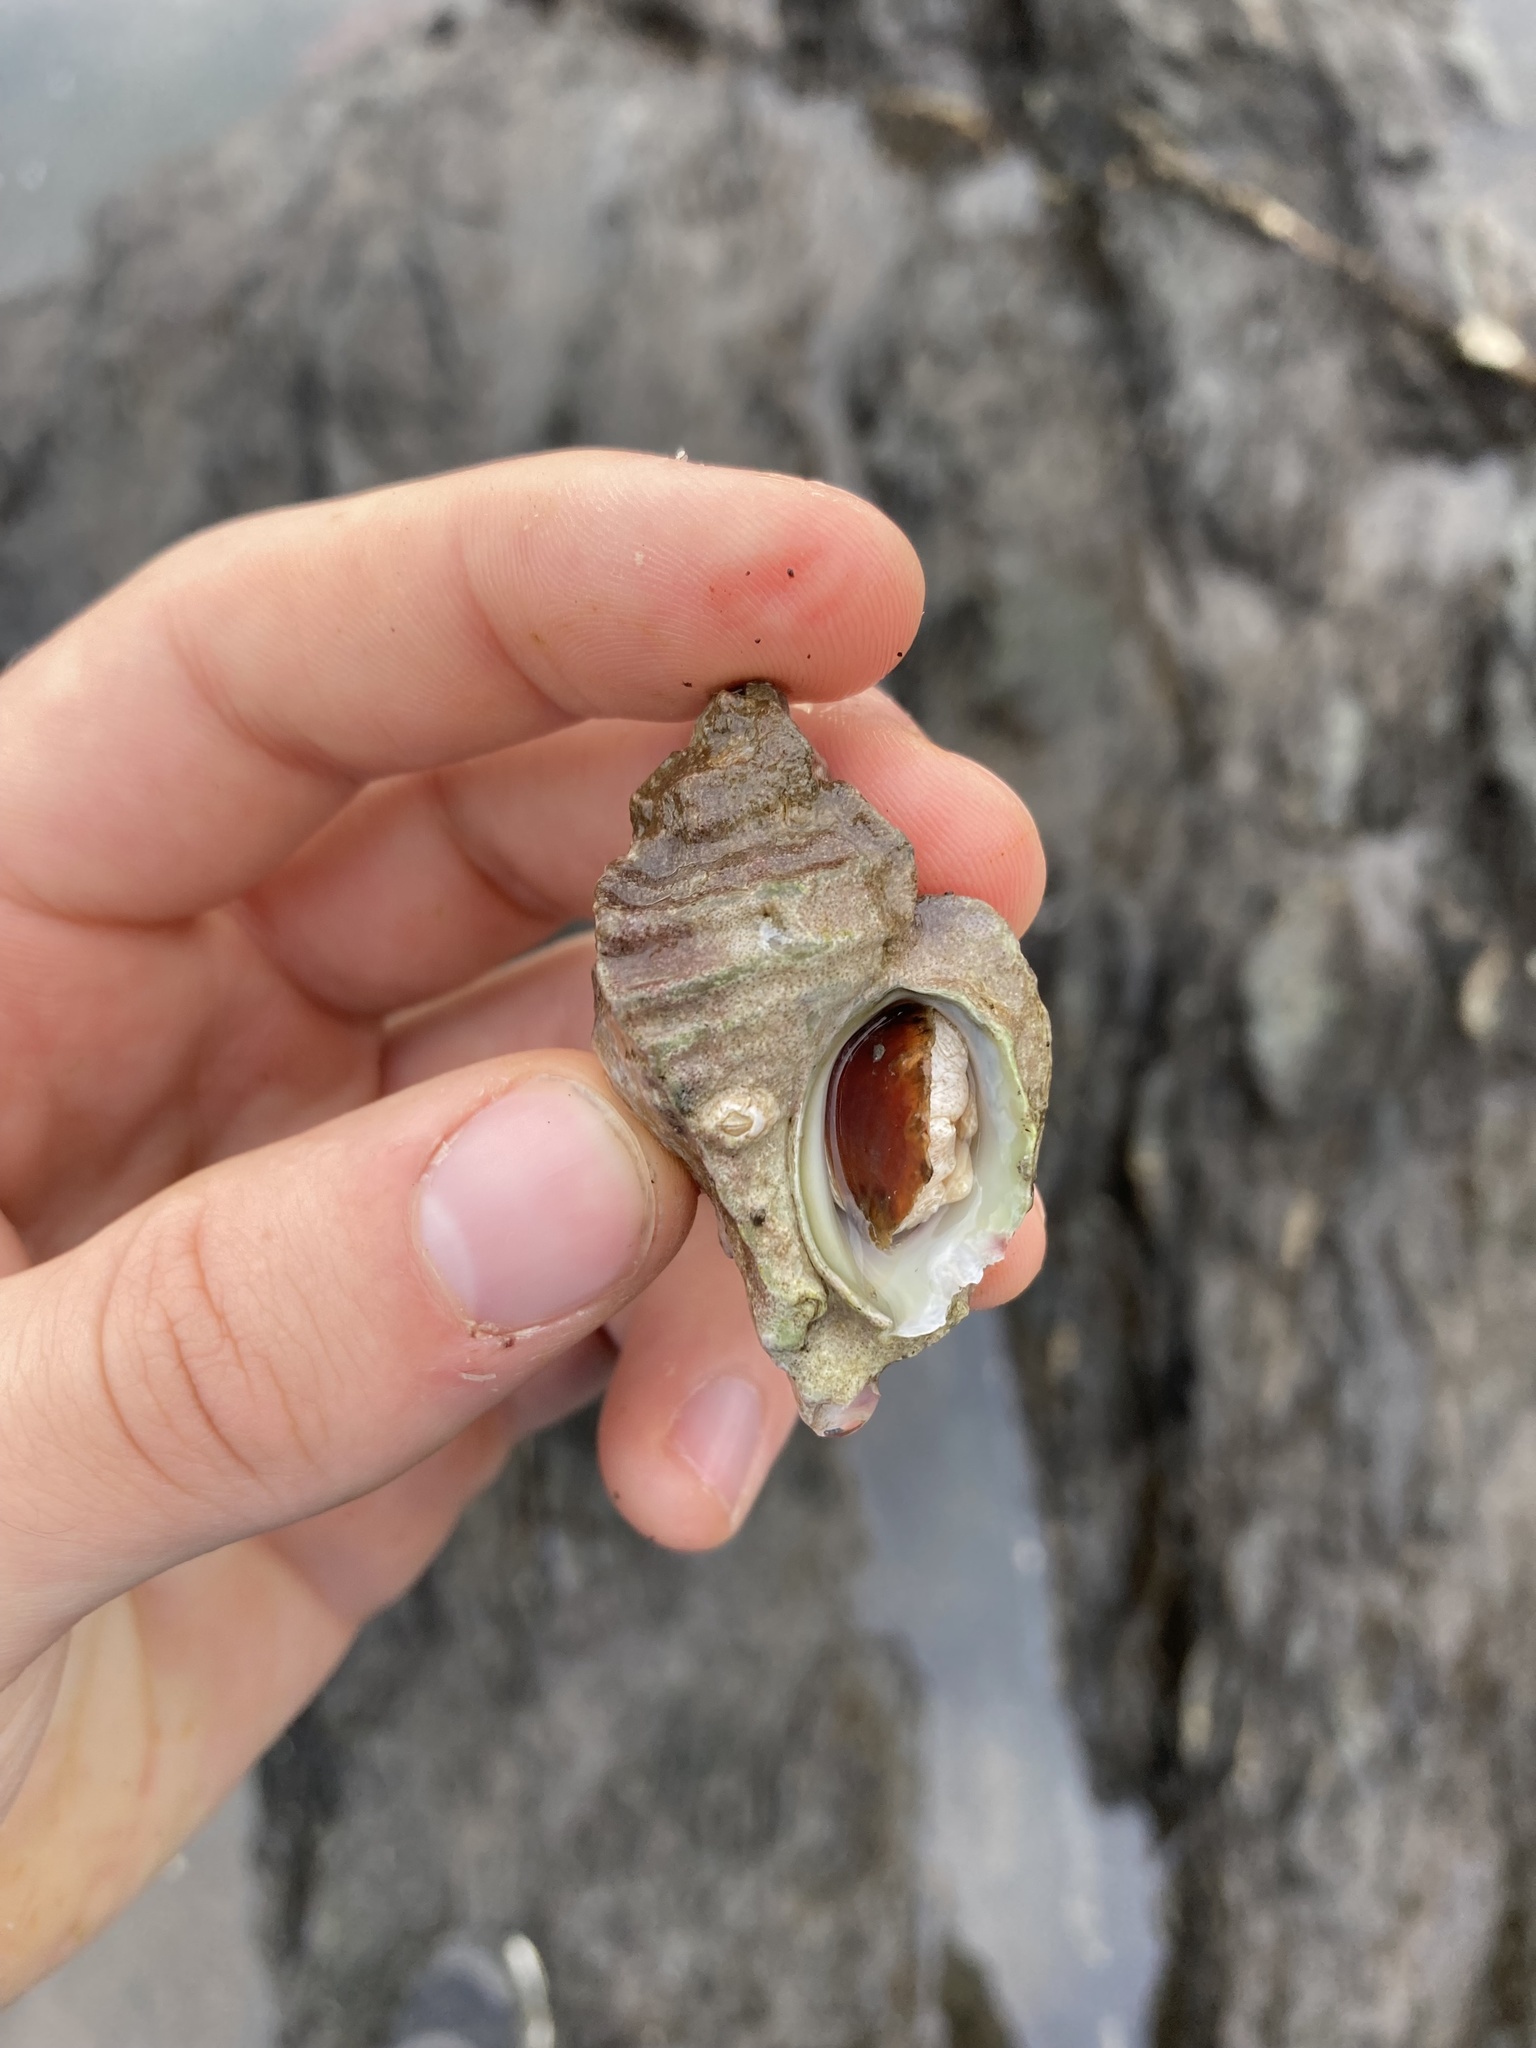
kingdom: Animalia
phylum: Mollusca
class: Gastropoda
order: Neogastropoda
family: Muricidae
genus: Ceratostoma
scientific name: Ceratostoma foliatum
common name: Foliate thorn purpura
